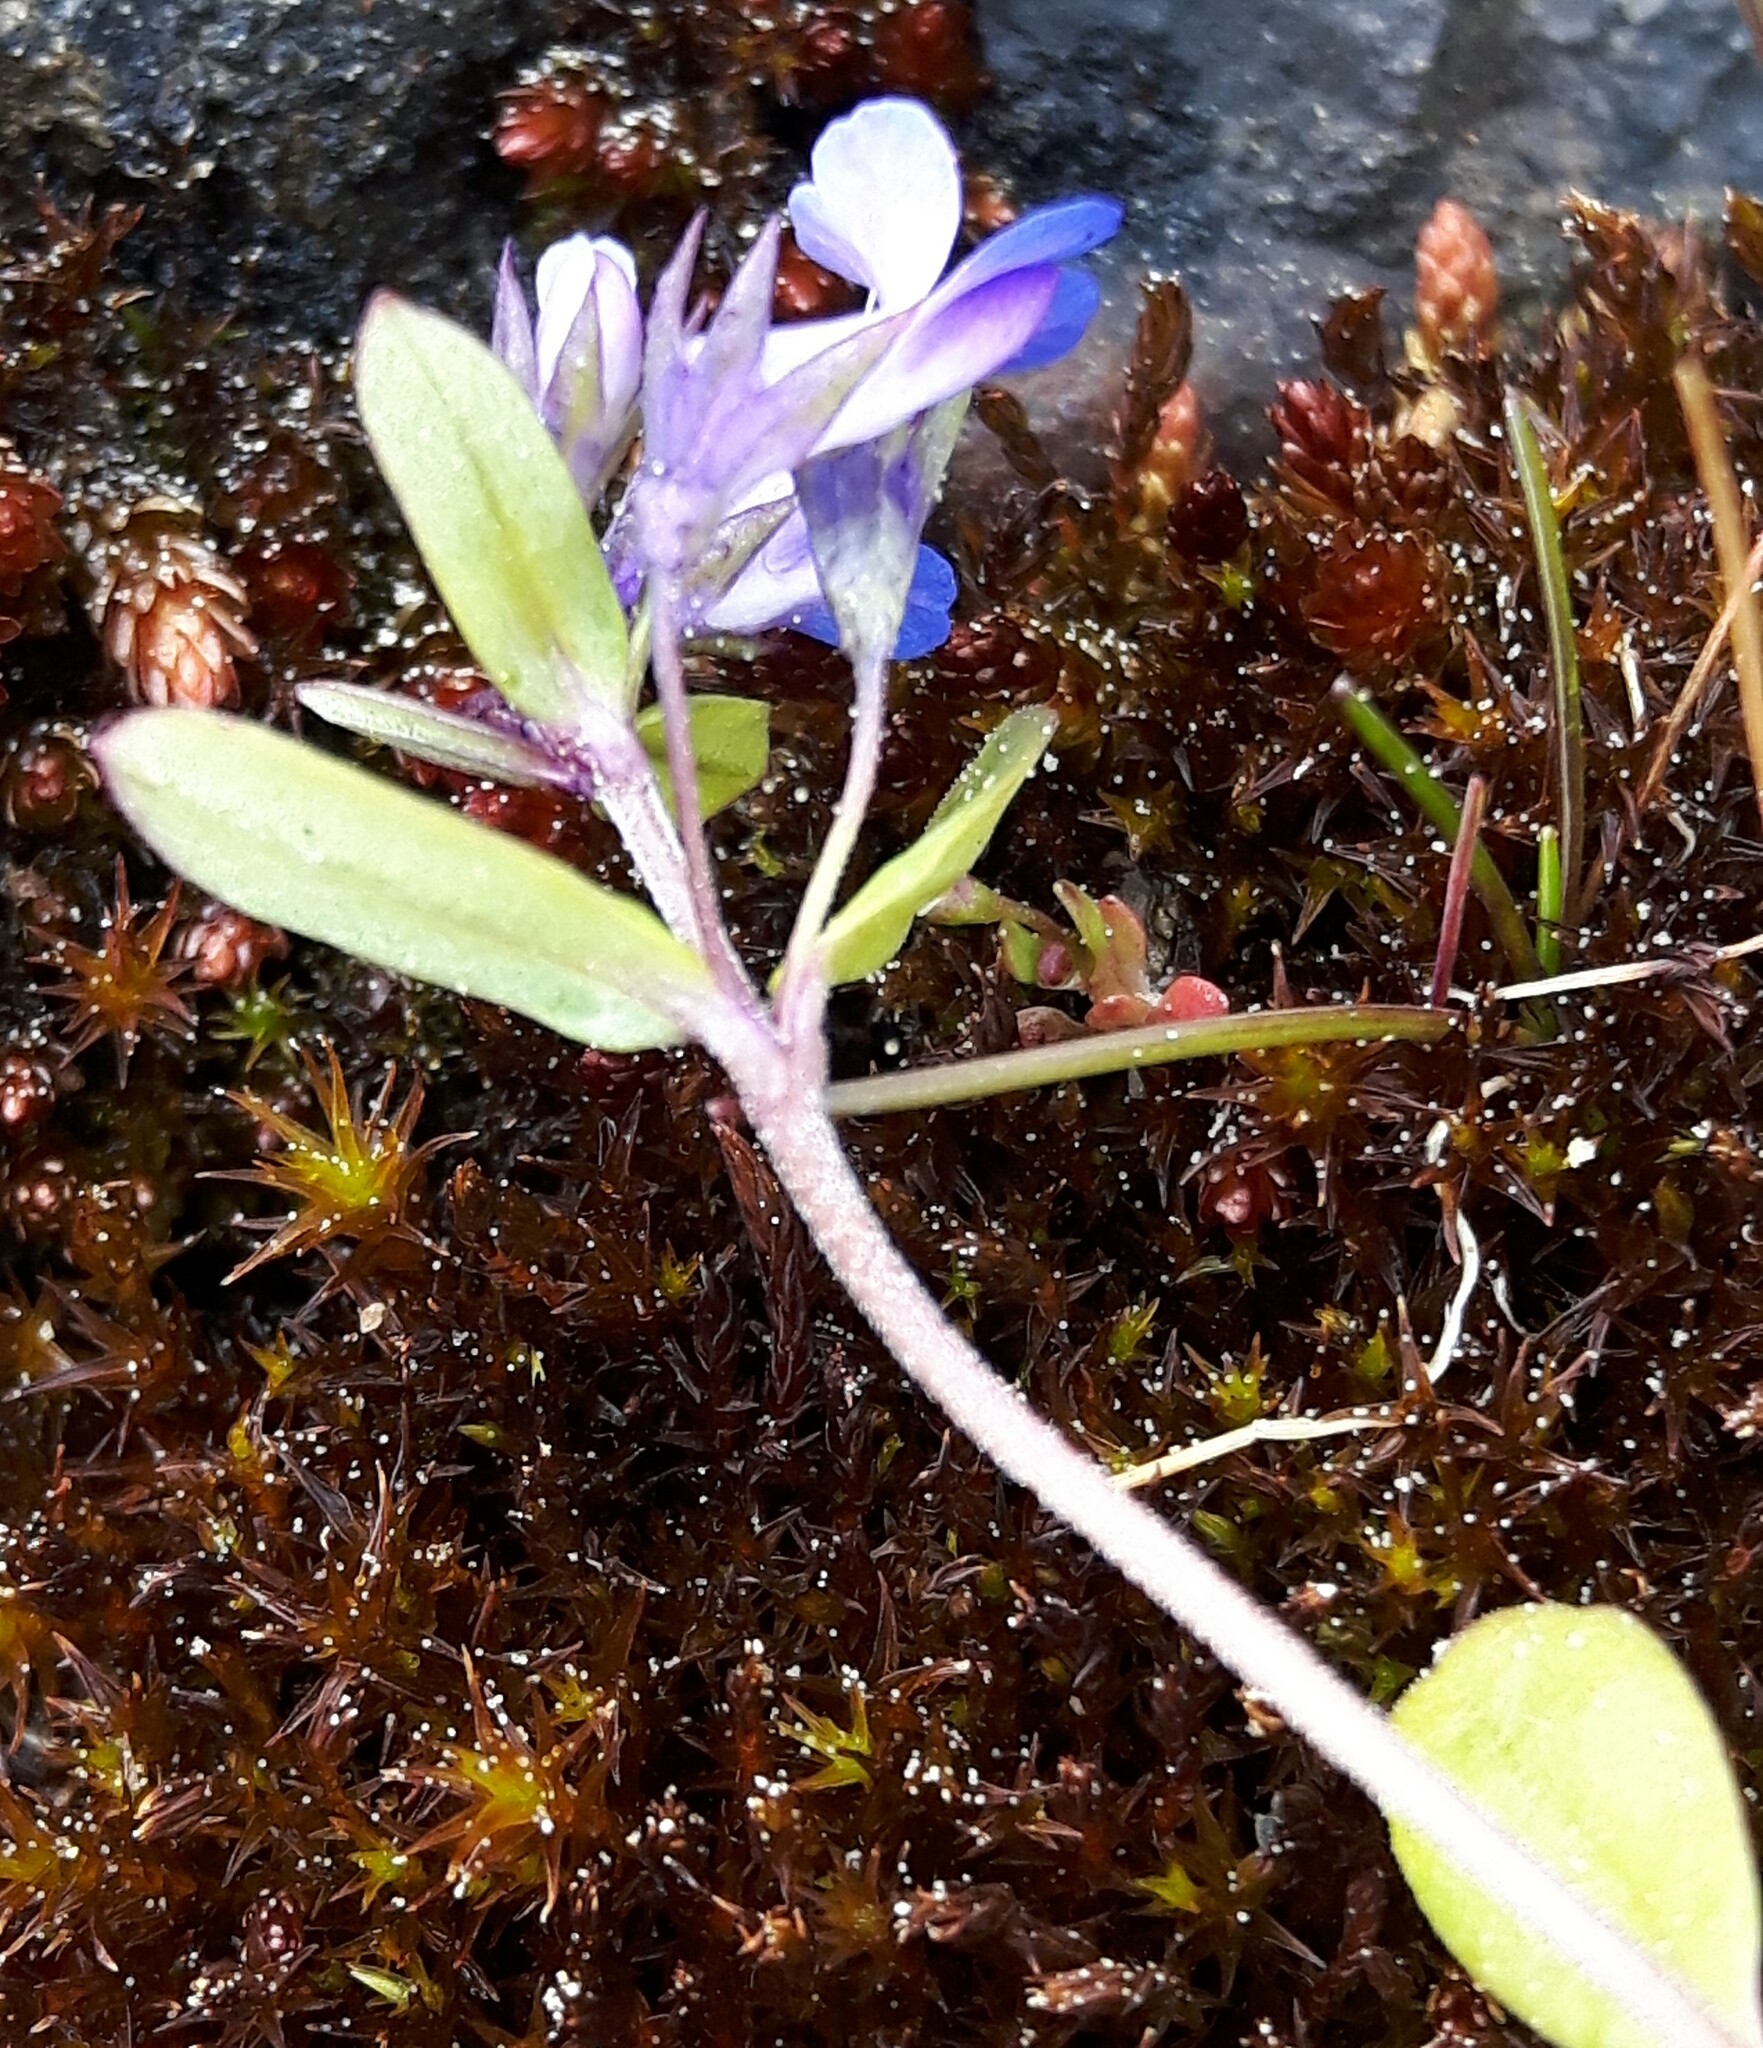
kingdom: Plantae
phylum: Tracheophyta
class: Magnoliopsida
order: Lamiales
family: Plantaginaceae
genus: Collinsia
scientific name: Collinsia parviflora
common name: Blue-lips
